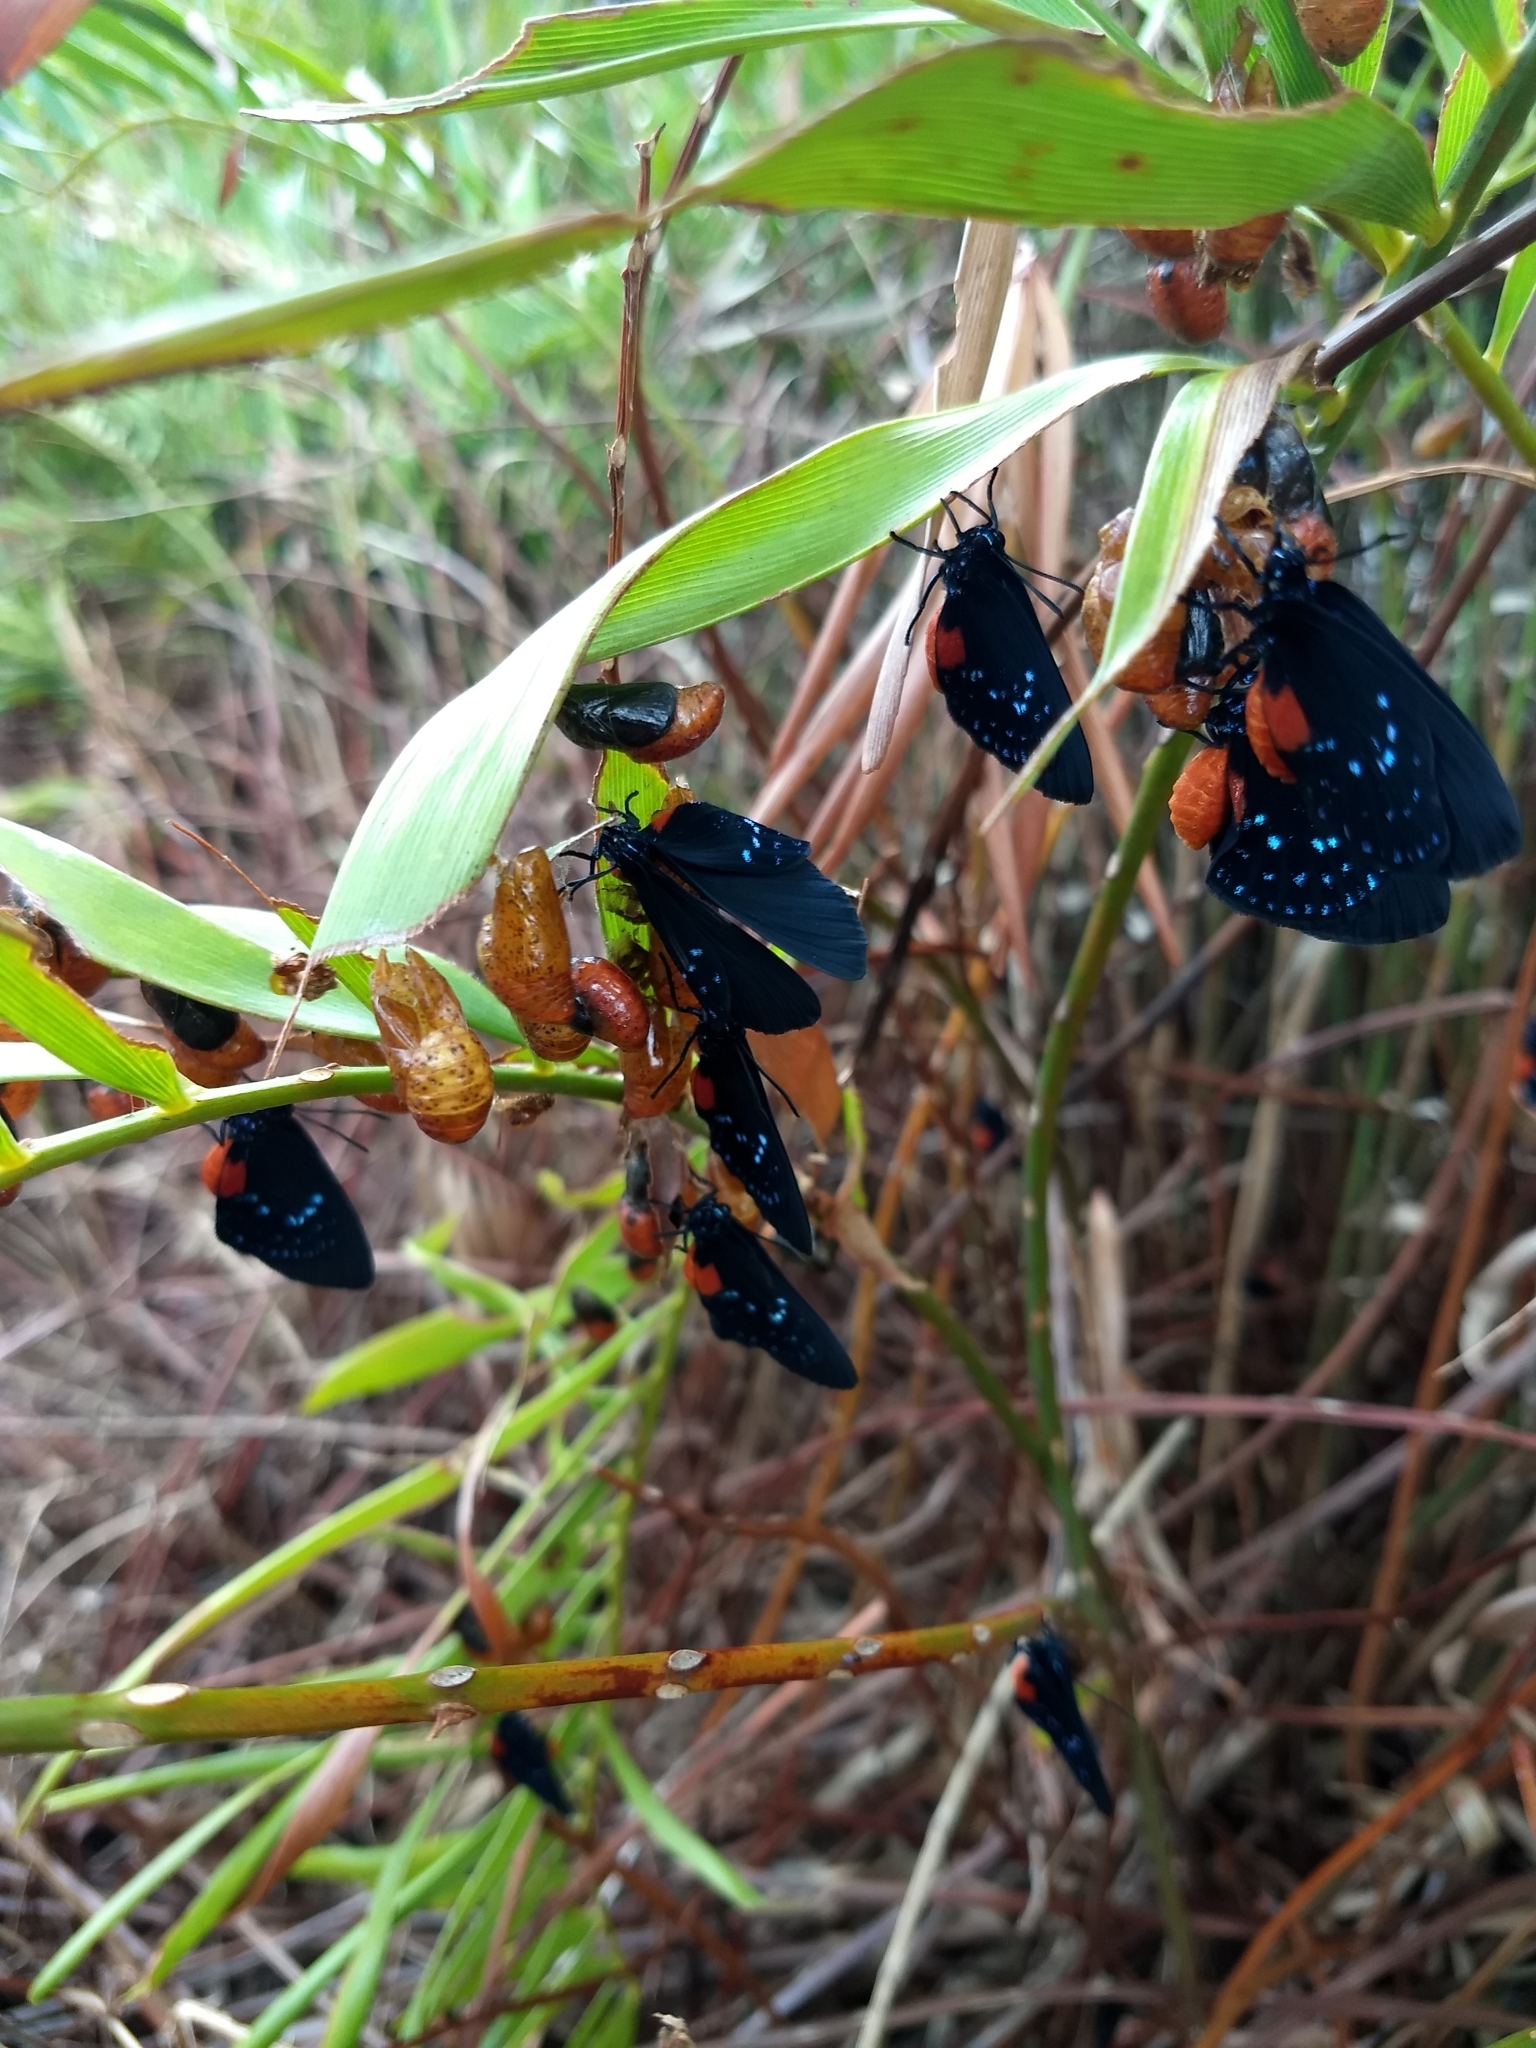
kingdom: Animalia
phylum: Arthropoda
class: Insecta
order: Lepidoptera
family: Lycaenidae
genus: Eumaeus
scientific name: Eumaeus atala
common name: Atala
